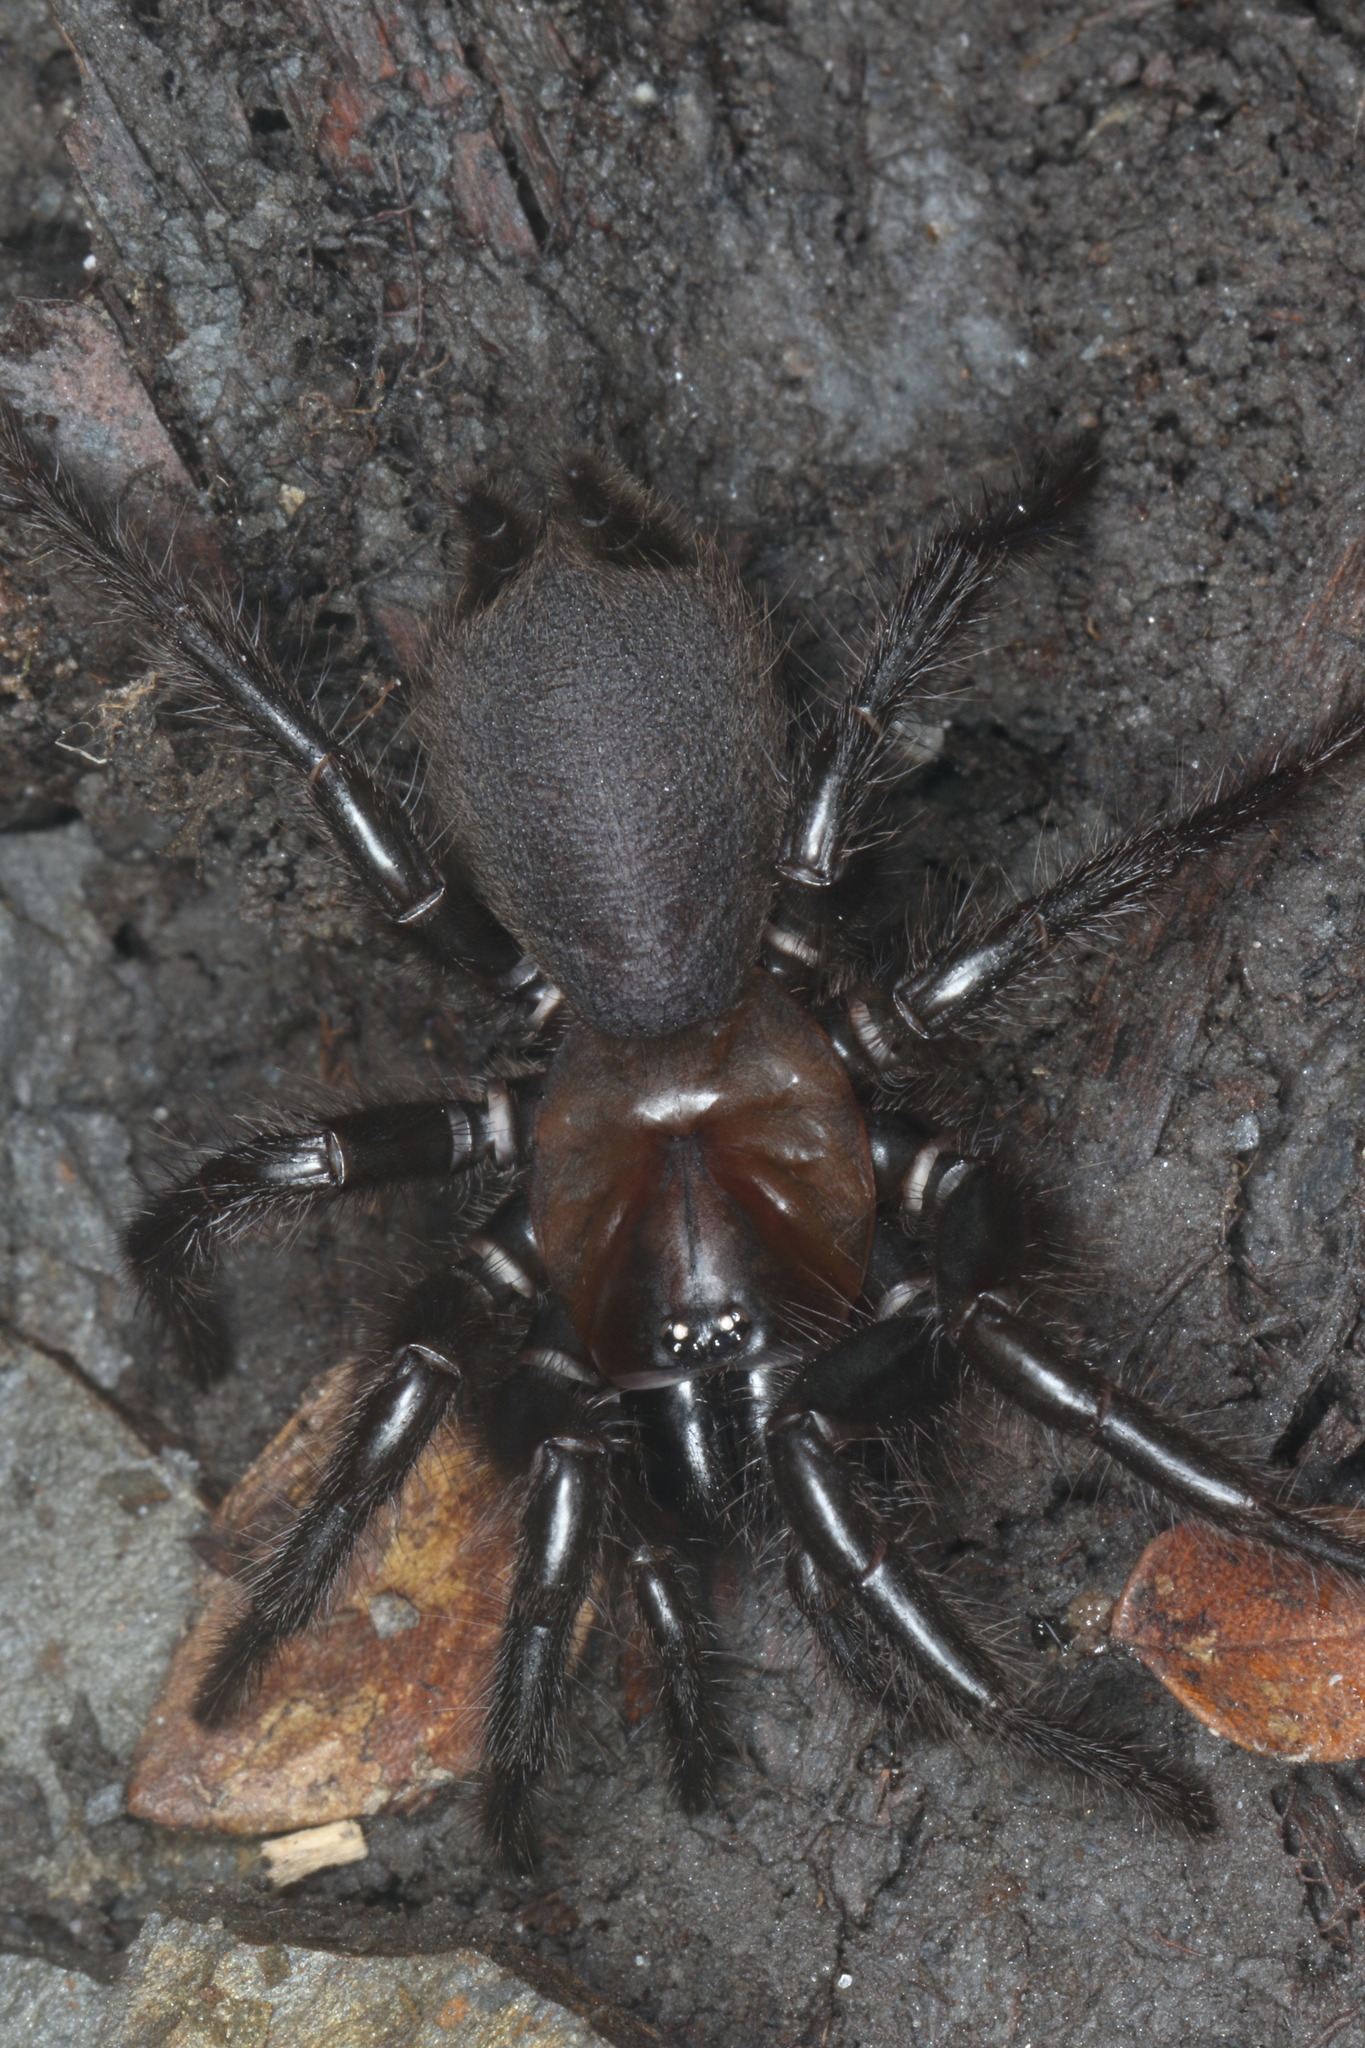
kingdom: Animalia
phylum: Arthropoda
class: Arachnida
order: Araneae
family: Porrhothelidae
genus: Porrhothele
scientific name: Porrhothele antipodiana
